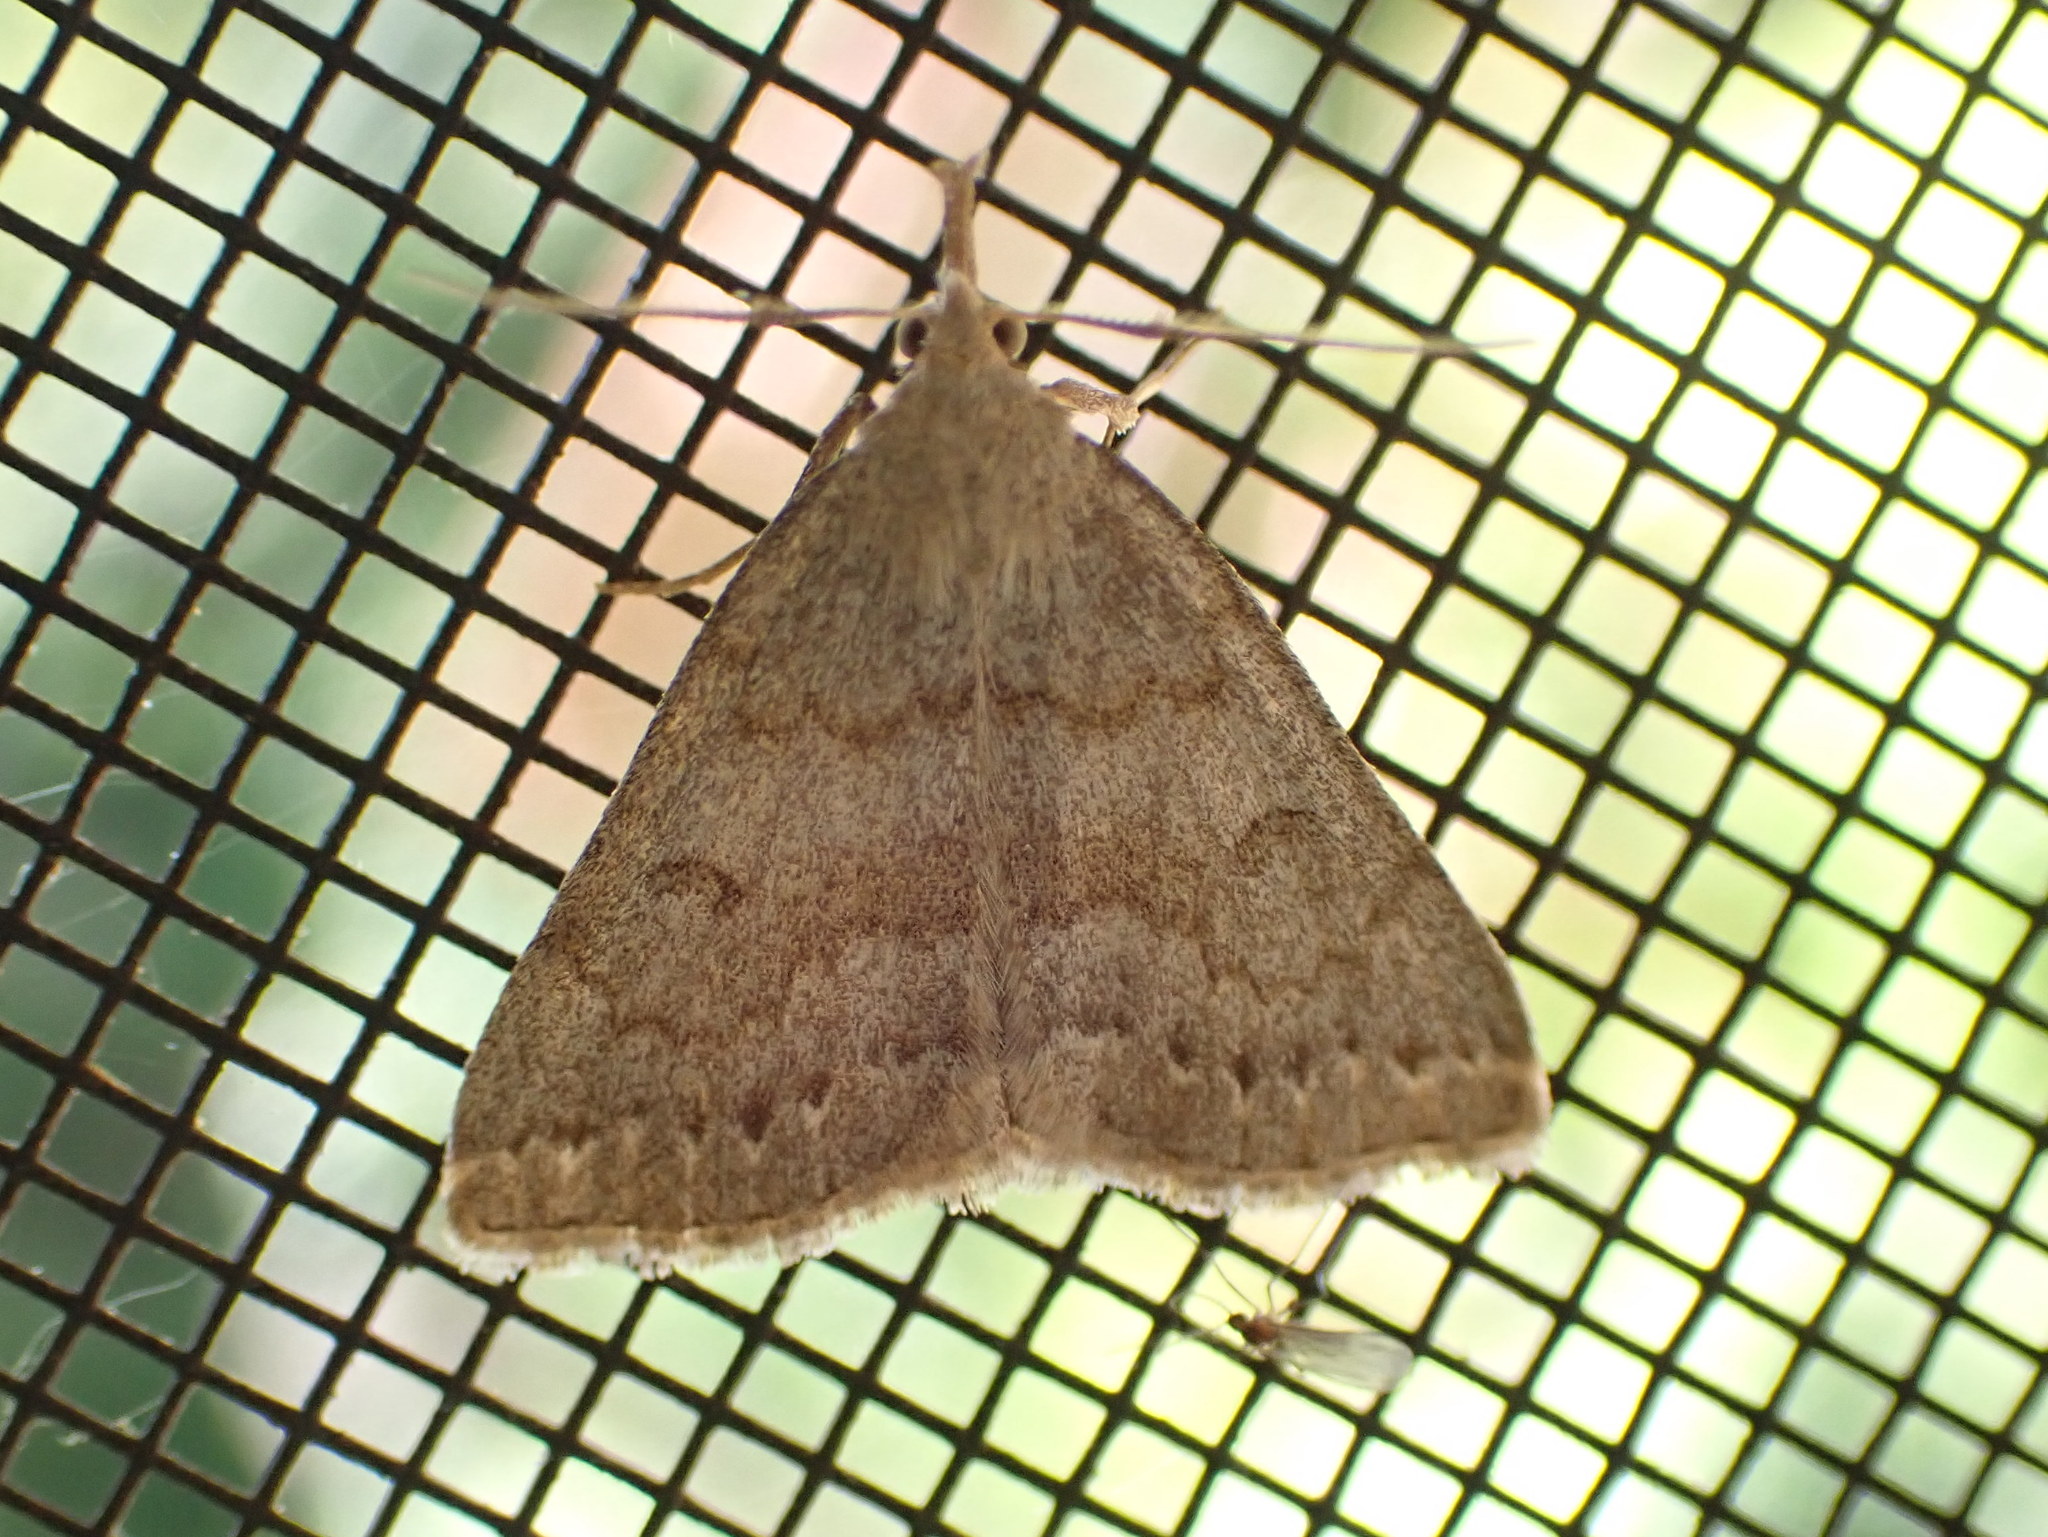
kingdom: Animalia
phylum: Arthropoda
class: Insecta
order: Lepidoptera
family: Erebidae
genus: Macrochilo
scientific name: Macrochilo morbidalis
